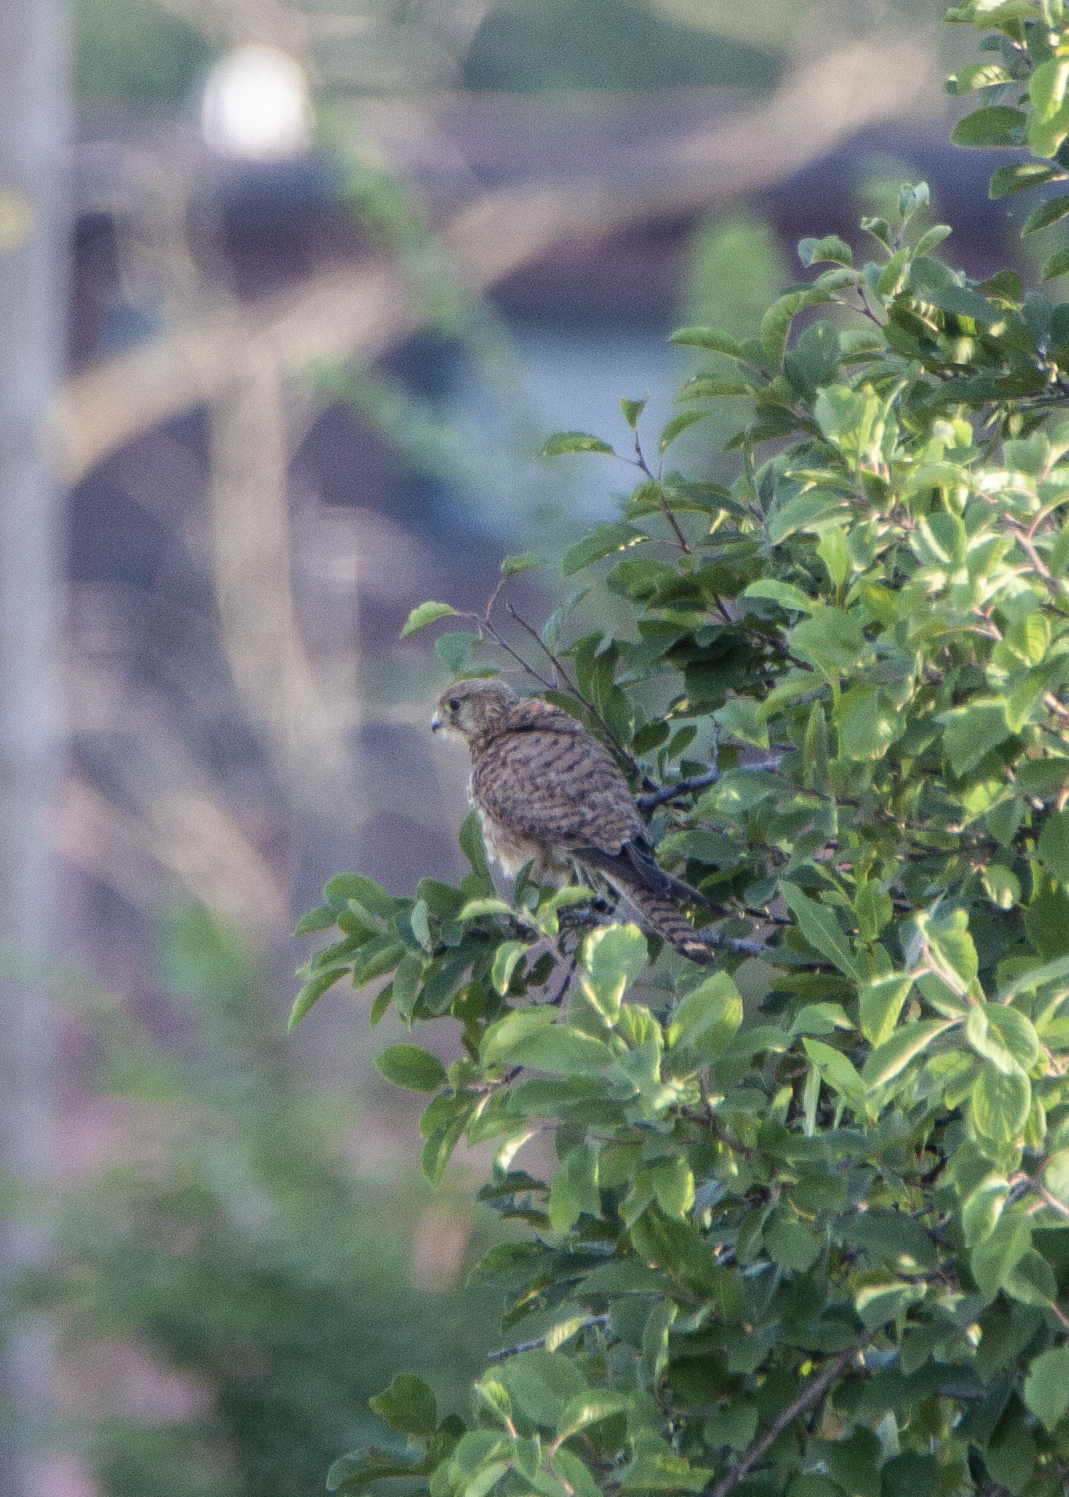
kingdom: Animalia
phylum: Chordata
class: Aves
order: Falconiformes
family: Falconidae
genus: Falco
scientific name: Falco tinnunculus
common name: Common kestrel
